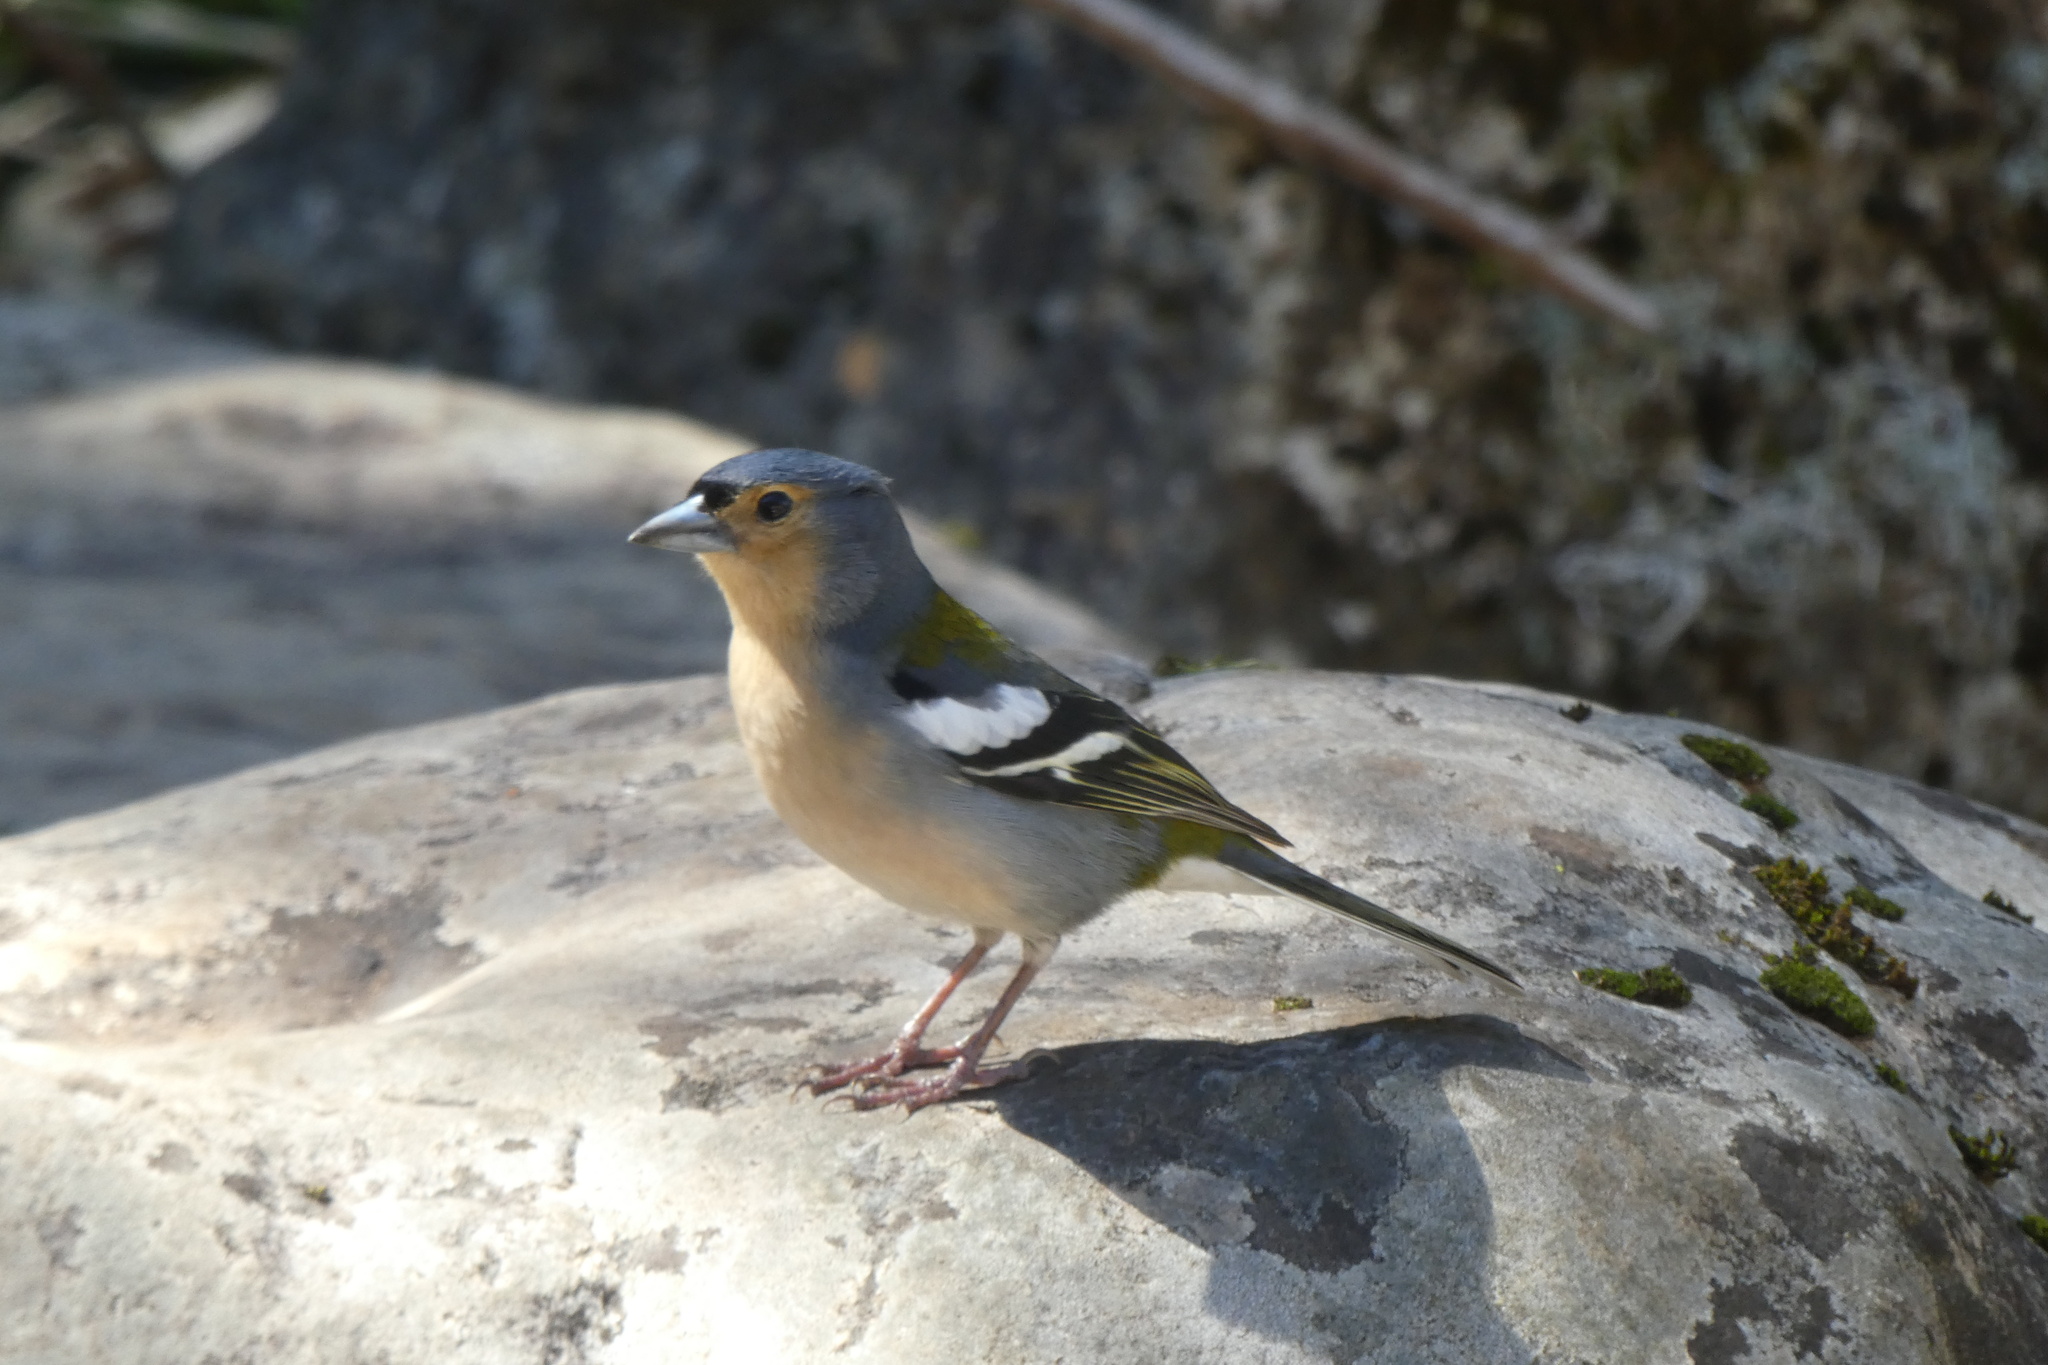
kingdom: Animalia
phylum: Chordata
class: Aves
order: Passeriformes
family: Fringillidae
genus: Fringilla
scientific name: Fringilla maderensis
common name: Madeira chaffinch
